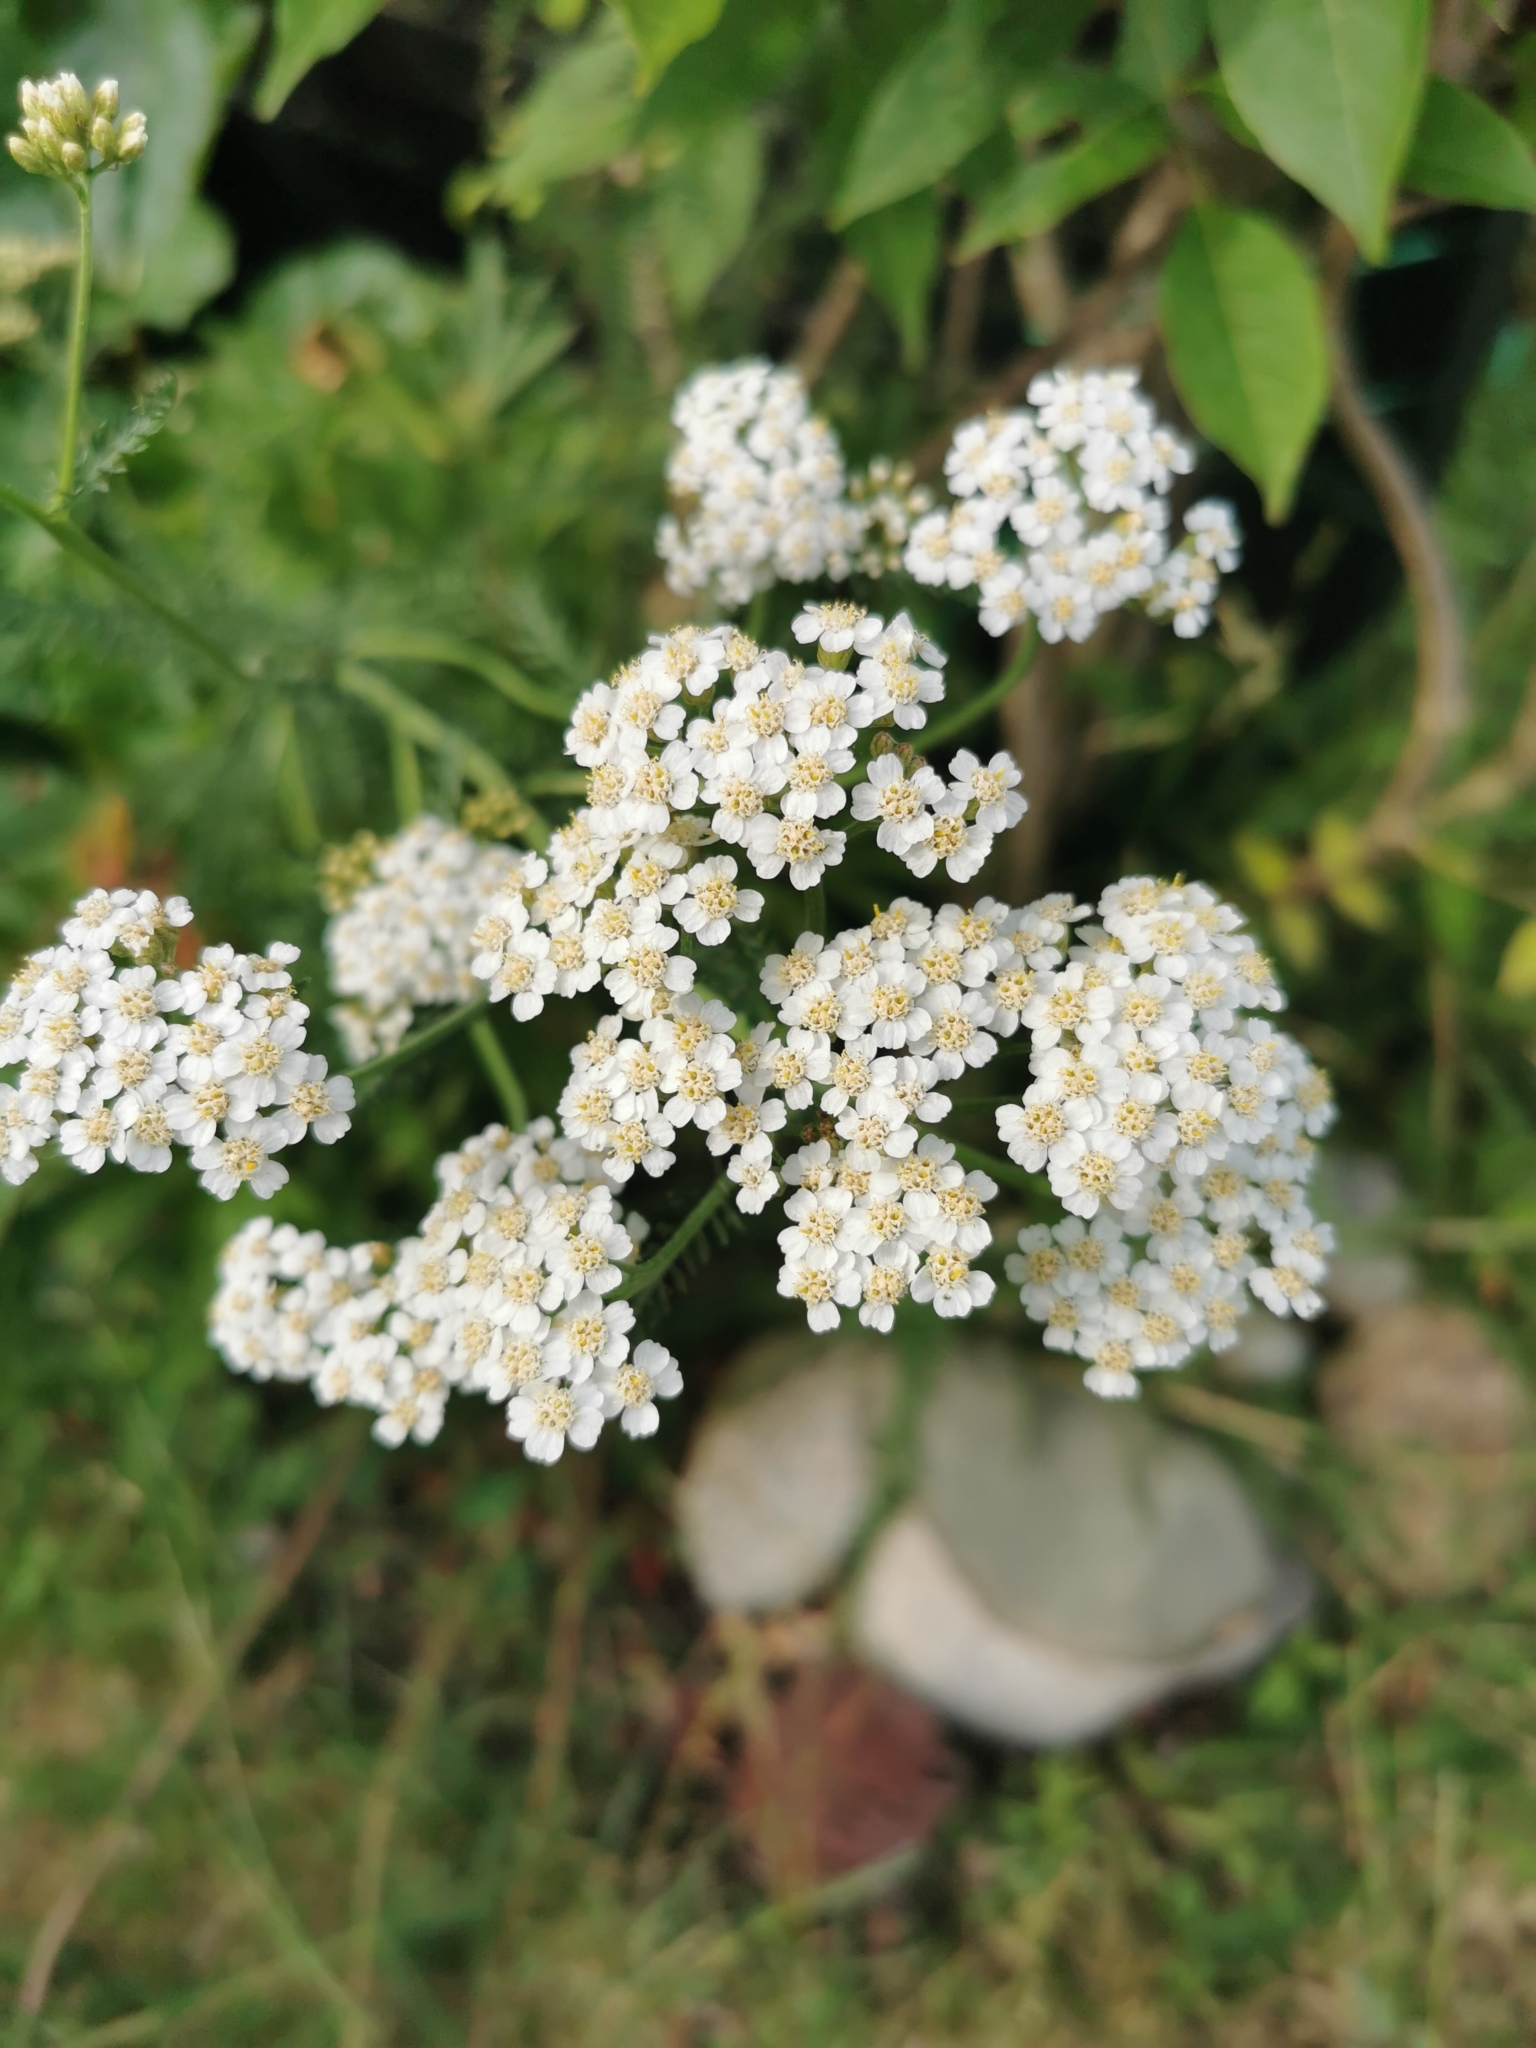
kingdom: Plantae
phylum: Tracheophyta
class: Magnoliopsida
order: Asterales
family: Asteraceae
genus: Achillea
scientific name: Achillea millefolium
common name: Yarrow
